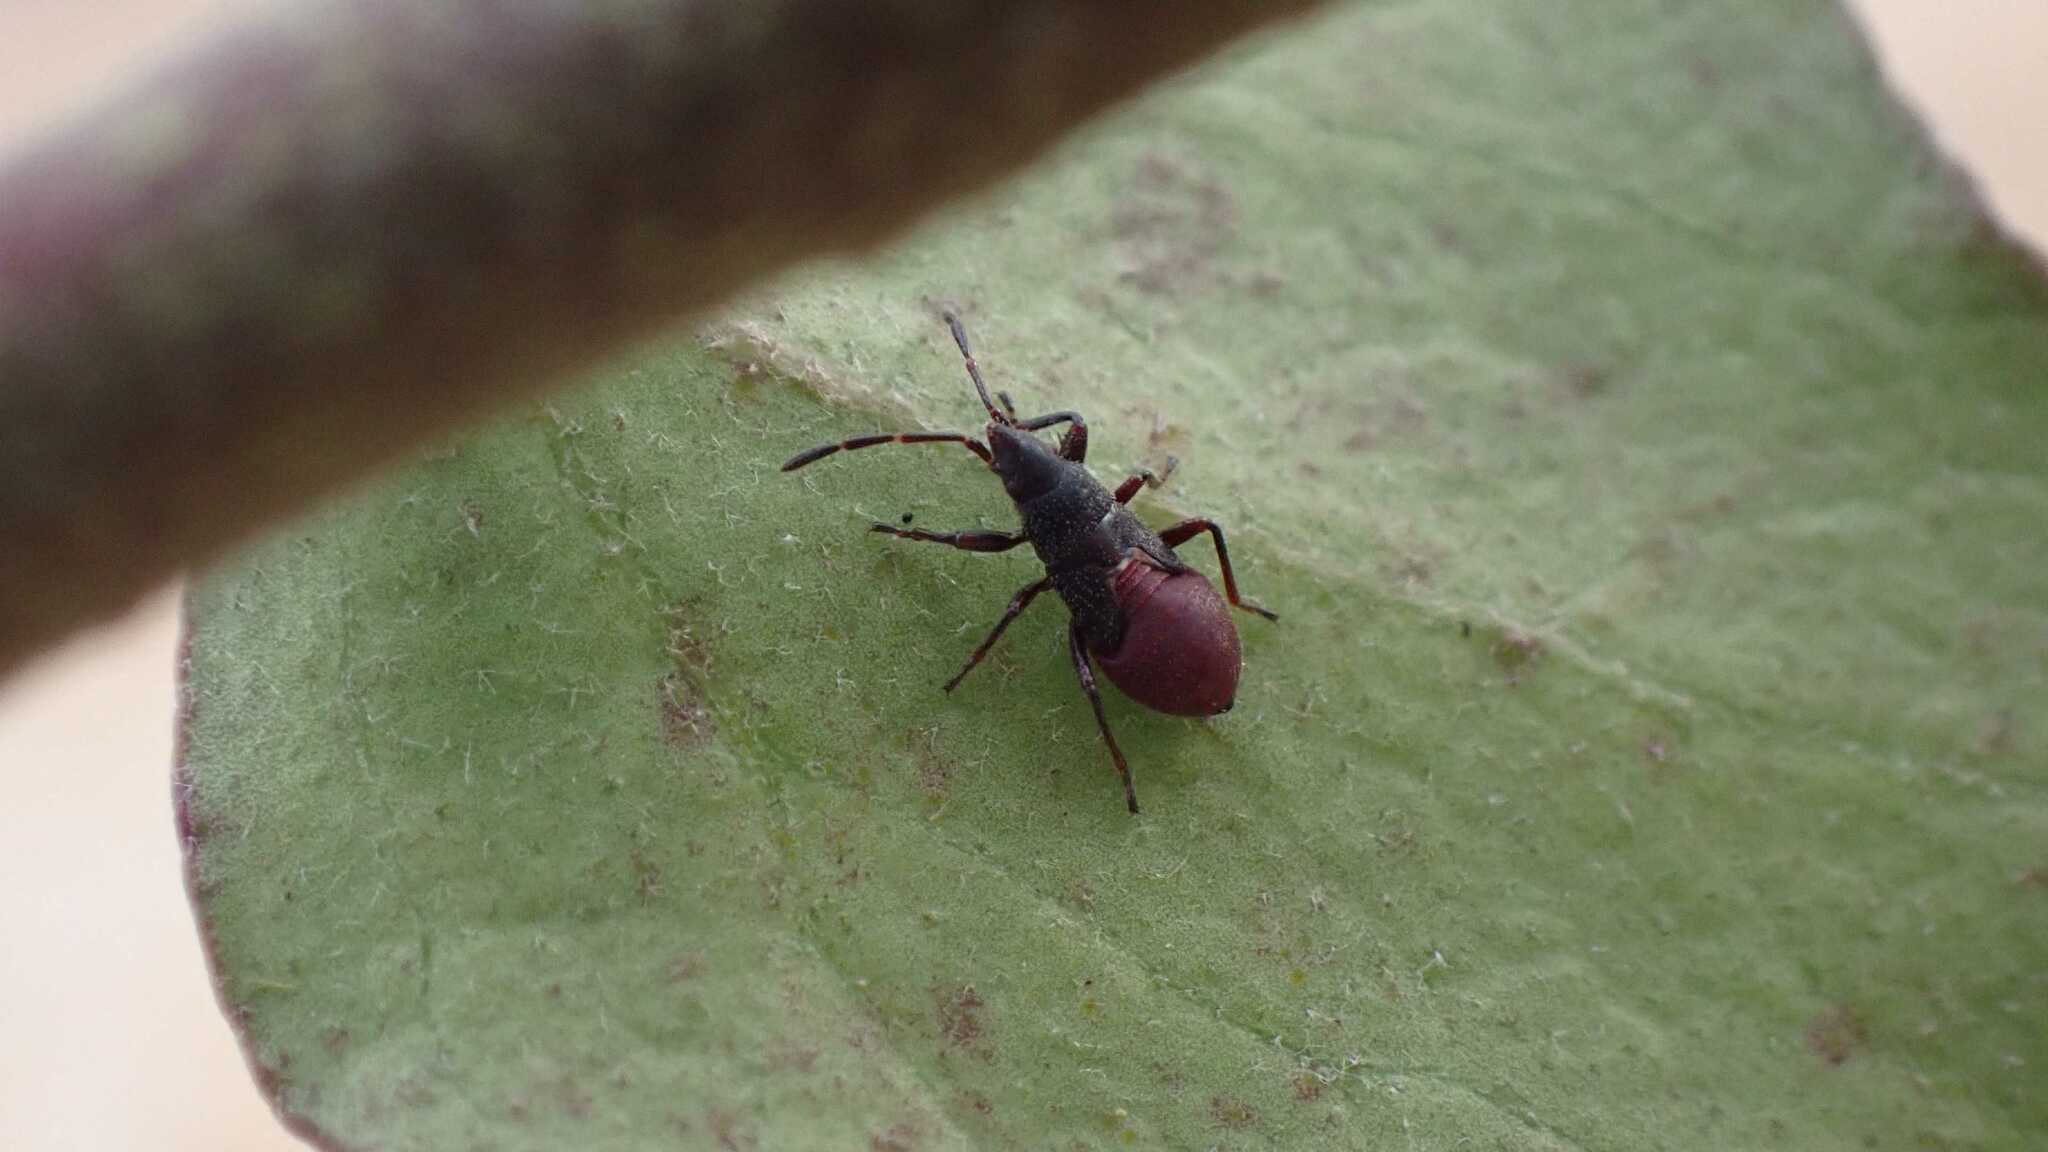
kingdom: Animalia
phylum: Arthropoda
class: Insecta
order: Hemiptera
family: Oxycarenidae
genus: Oxycarenus
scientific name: Oxycarenus lavaterae
